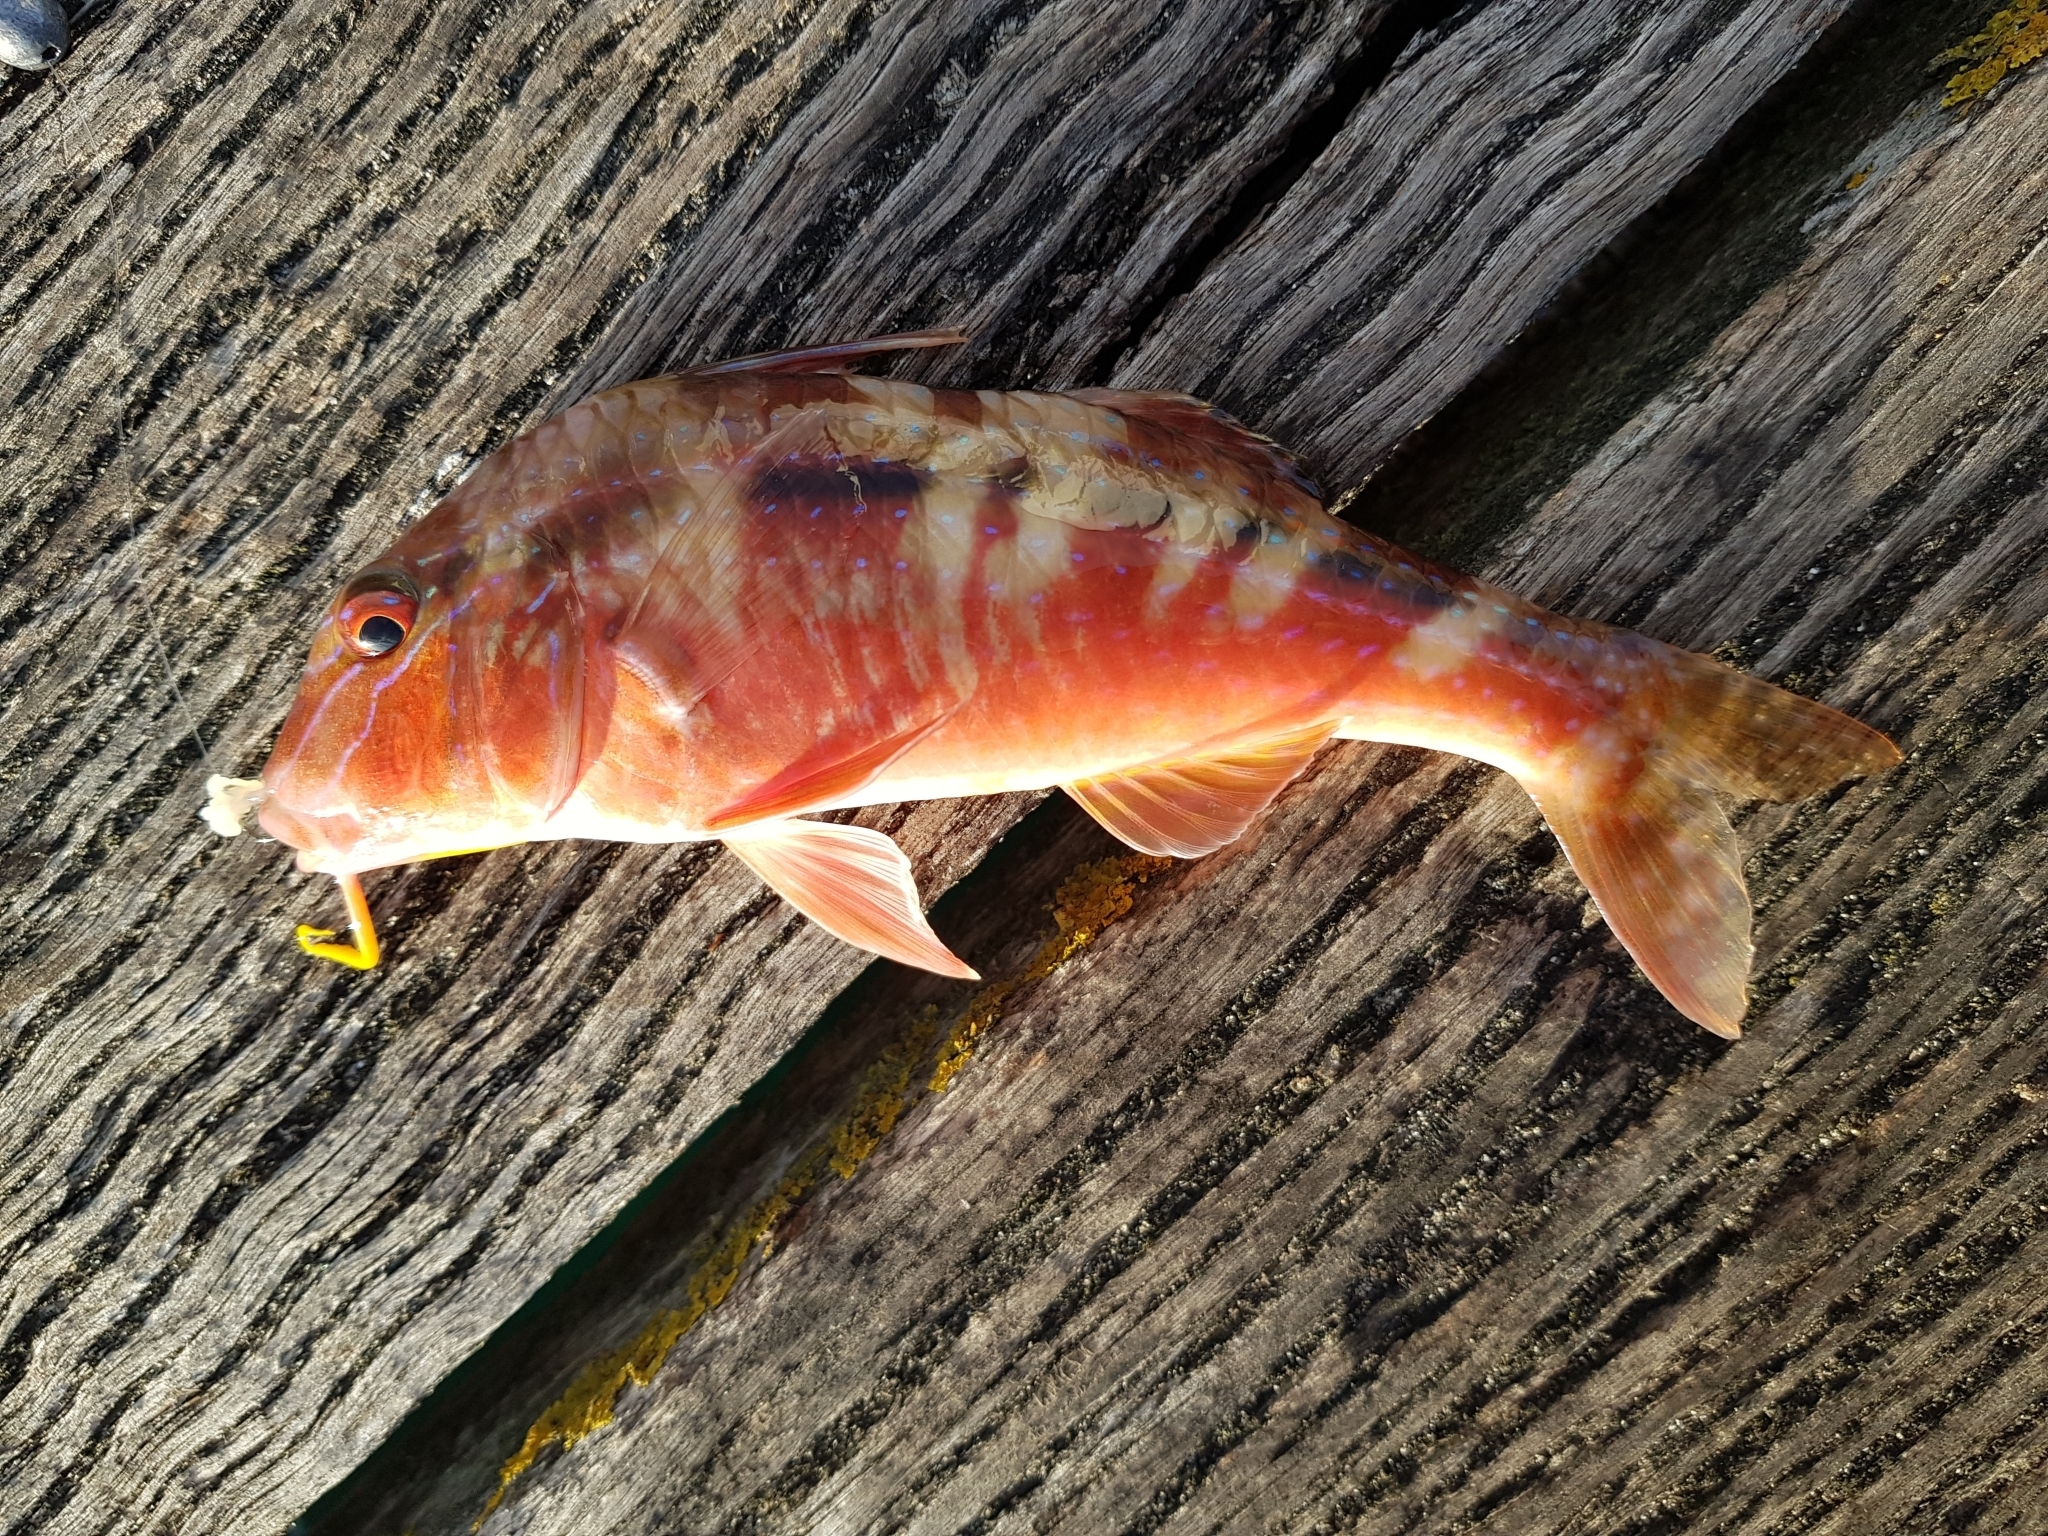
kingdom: Animalia
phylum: Chordata
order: Perciformes
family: Mullidae
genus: Upeneichthys
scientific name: Upeneichthys vlamingii
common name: Red mullet
